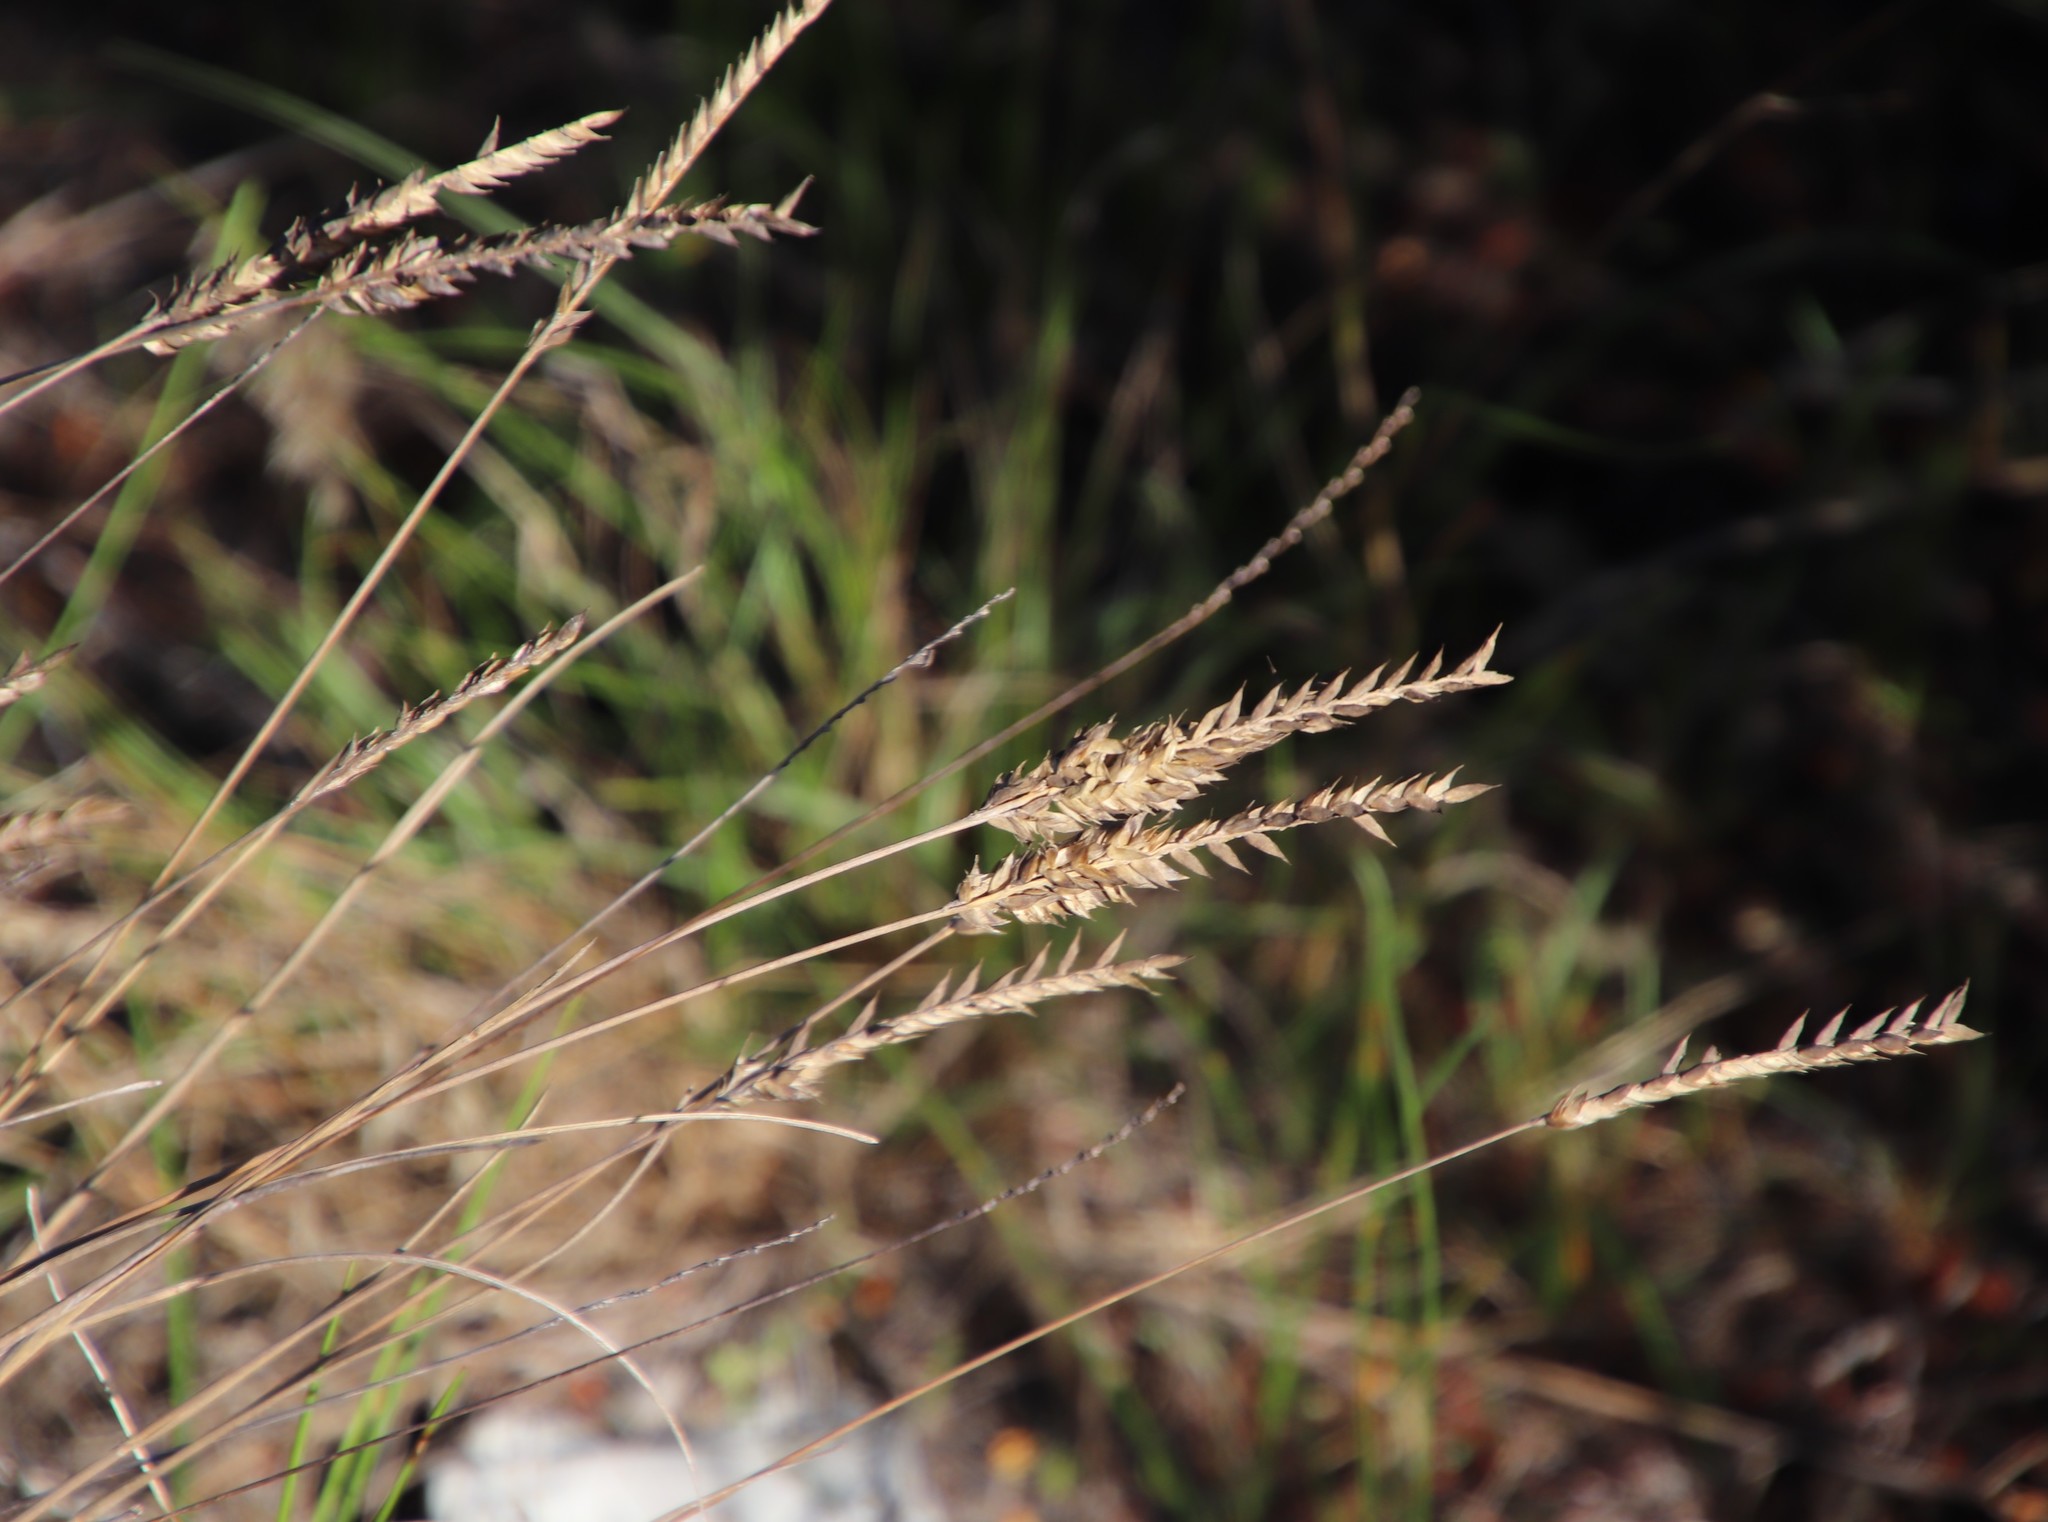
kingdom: Plantae
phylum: Tracheophyta
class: Liliopsida
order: Poales
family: Poaceae
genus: Tribolium
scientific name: Tribolium uniolae
